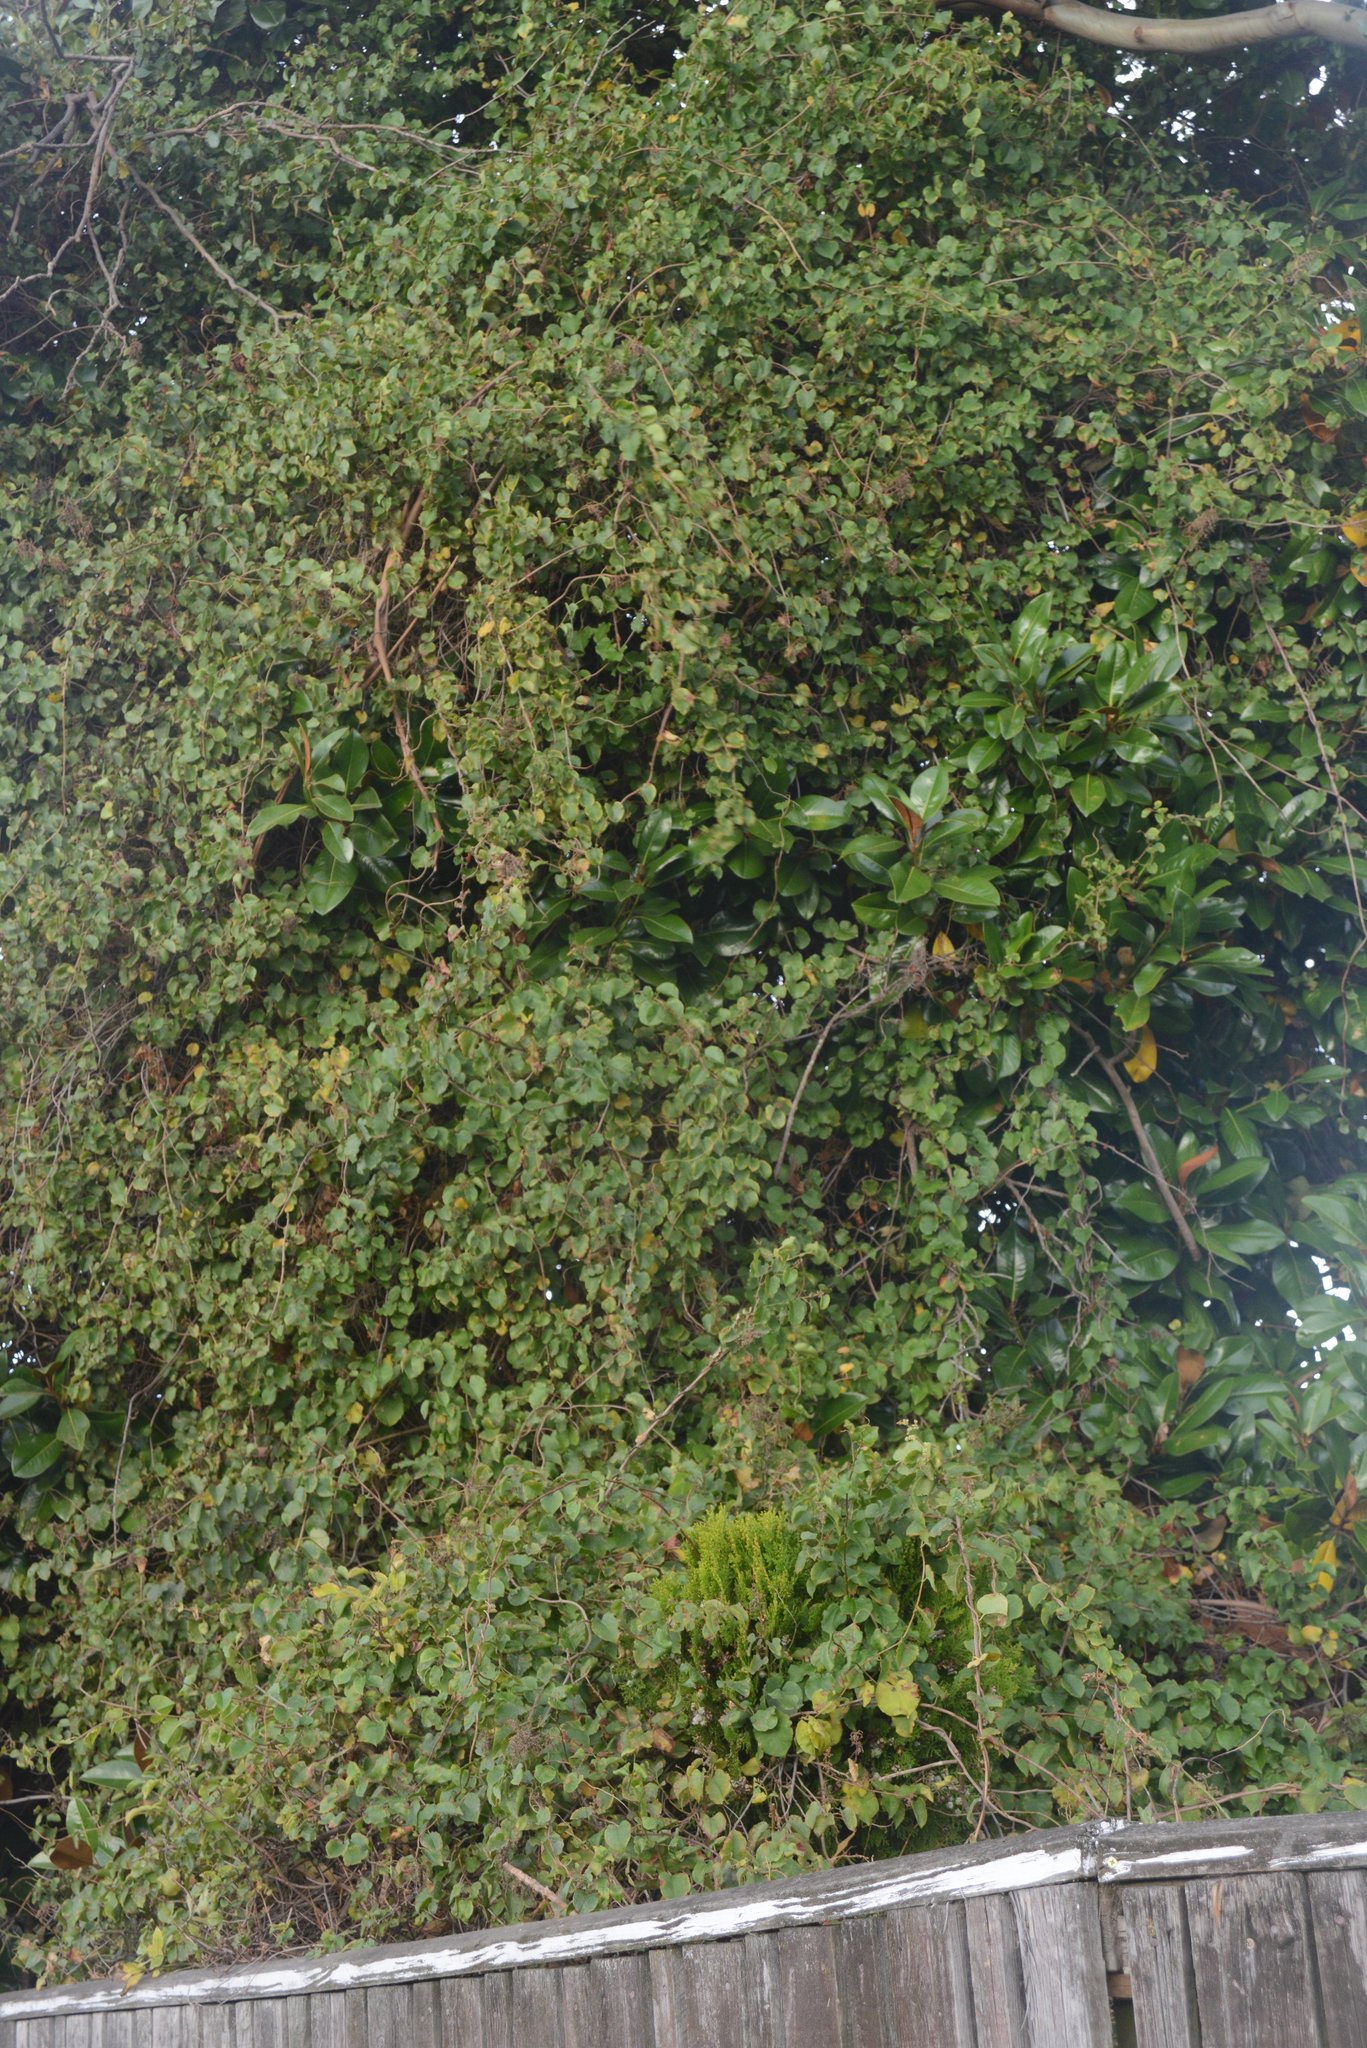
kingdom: Plantae
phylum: Tracheophyta
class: Magnoliopsida
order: Caryophyllales
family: Polygonaceae
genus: Muehlenbeckia
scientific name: Muehlenbeckia australis
